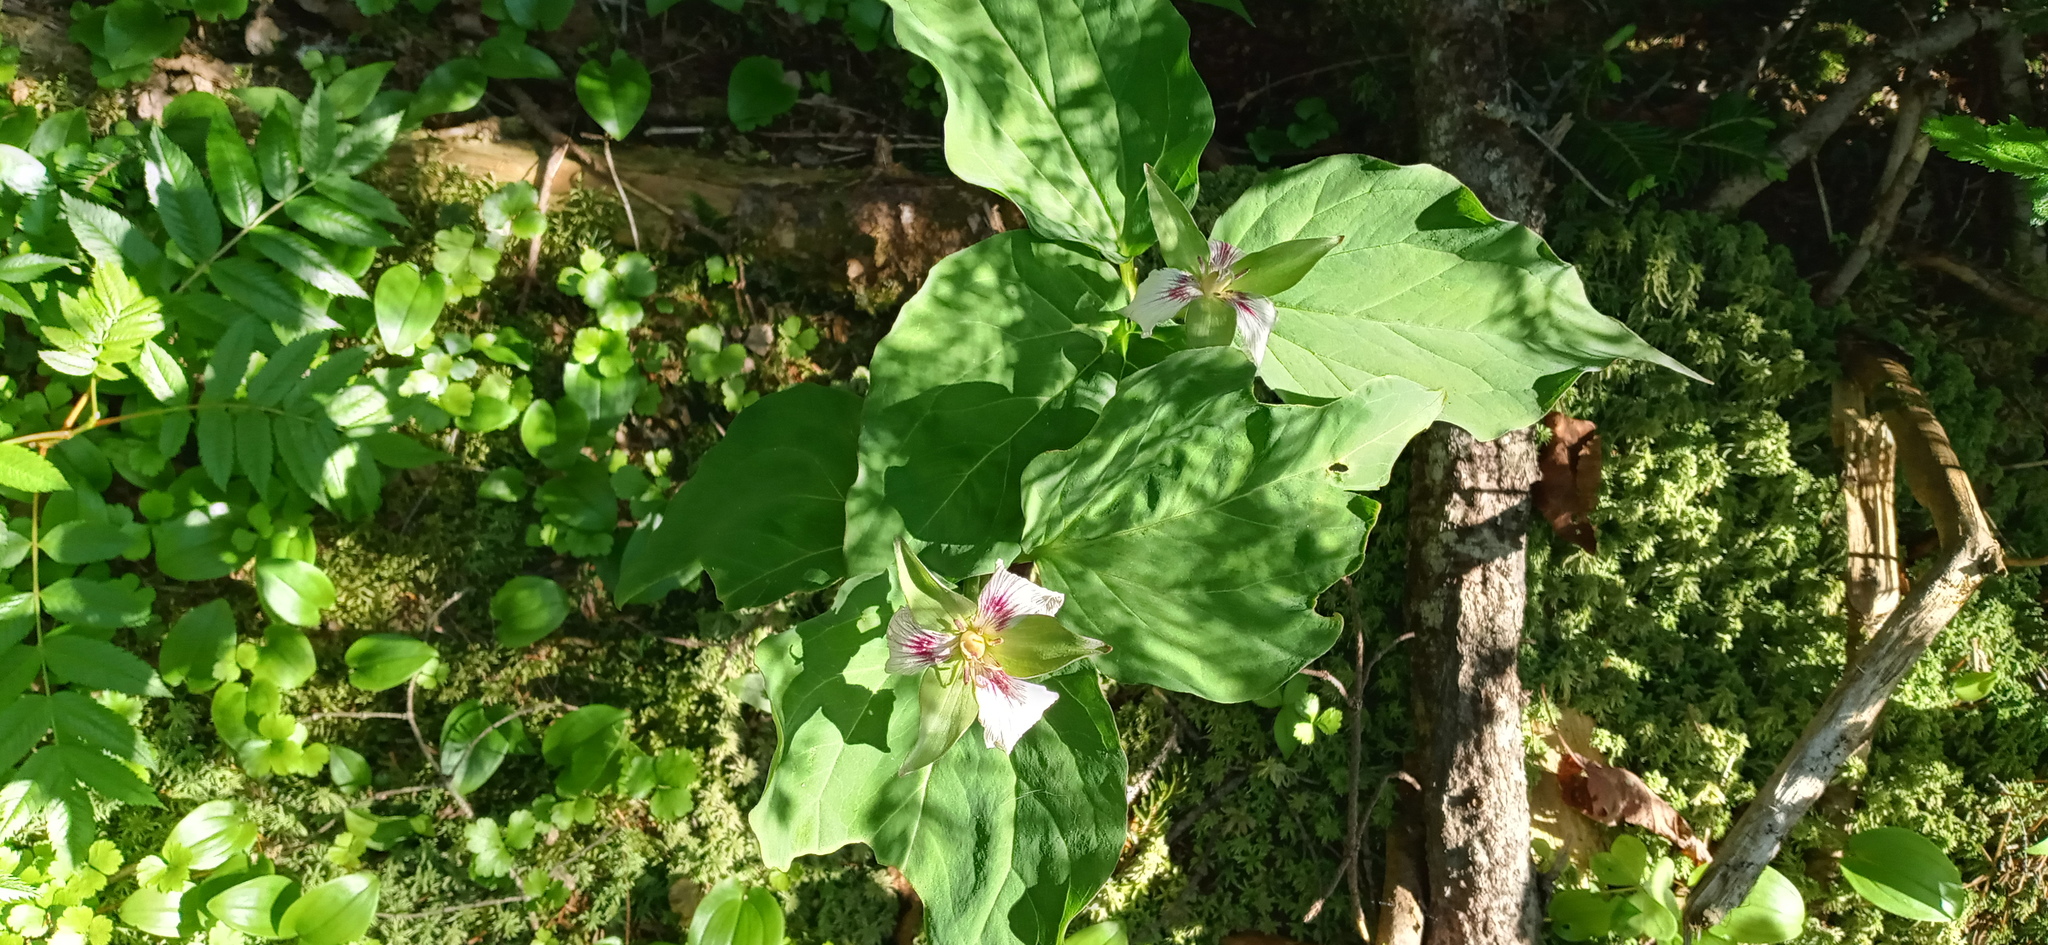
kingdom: Plantae
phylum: Tracheophyta
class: Liliopsida
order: Liliales
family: Melanthiaceae
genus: Trillium
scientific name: Trillium undulatum
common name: Paint trillium
